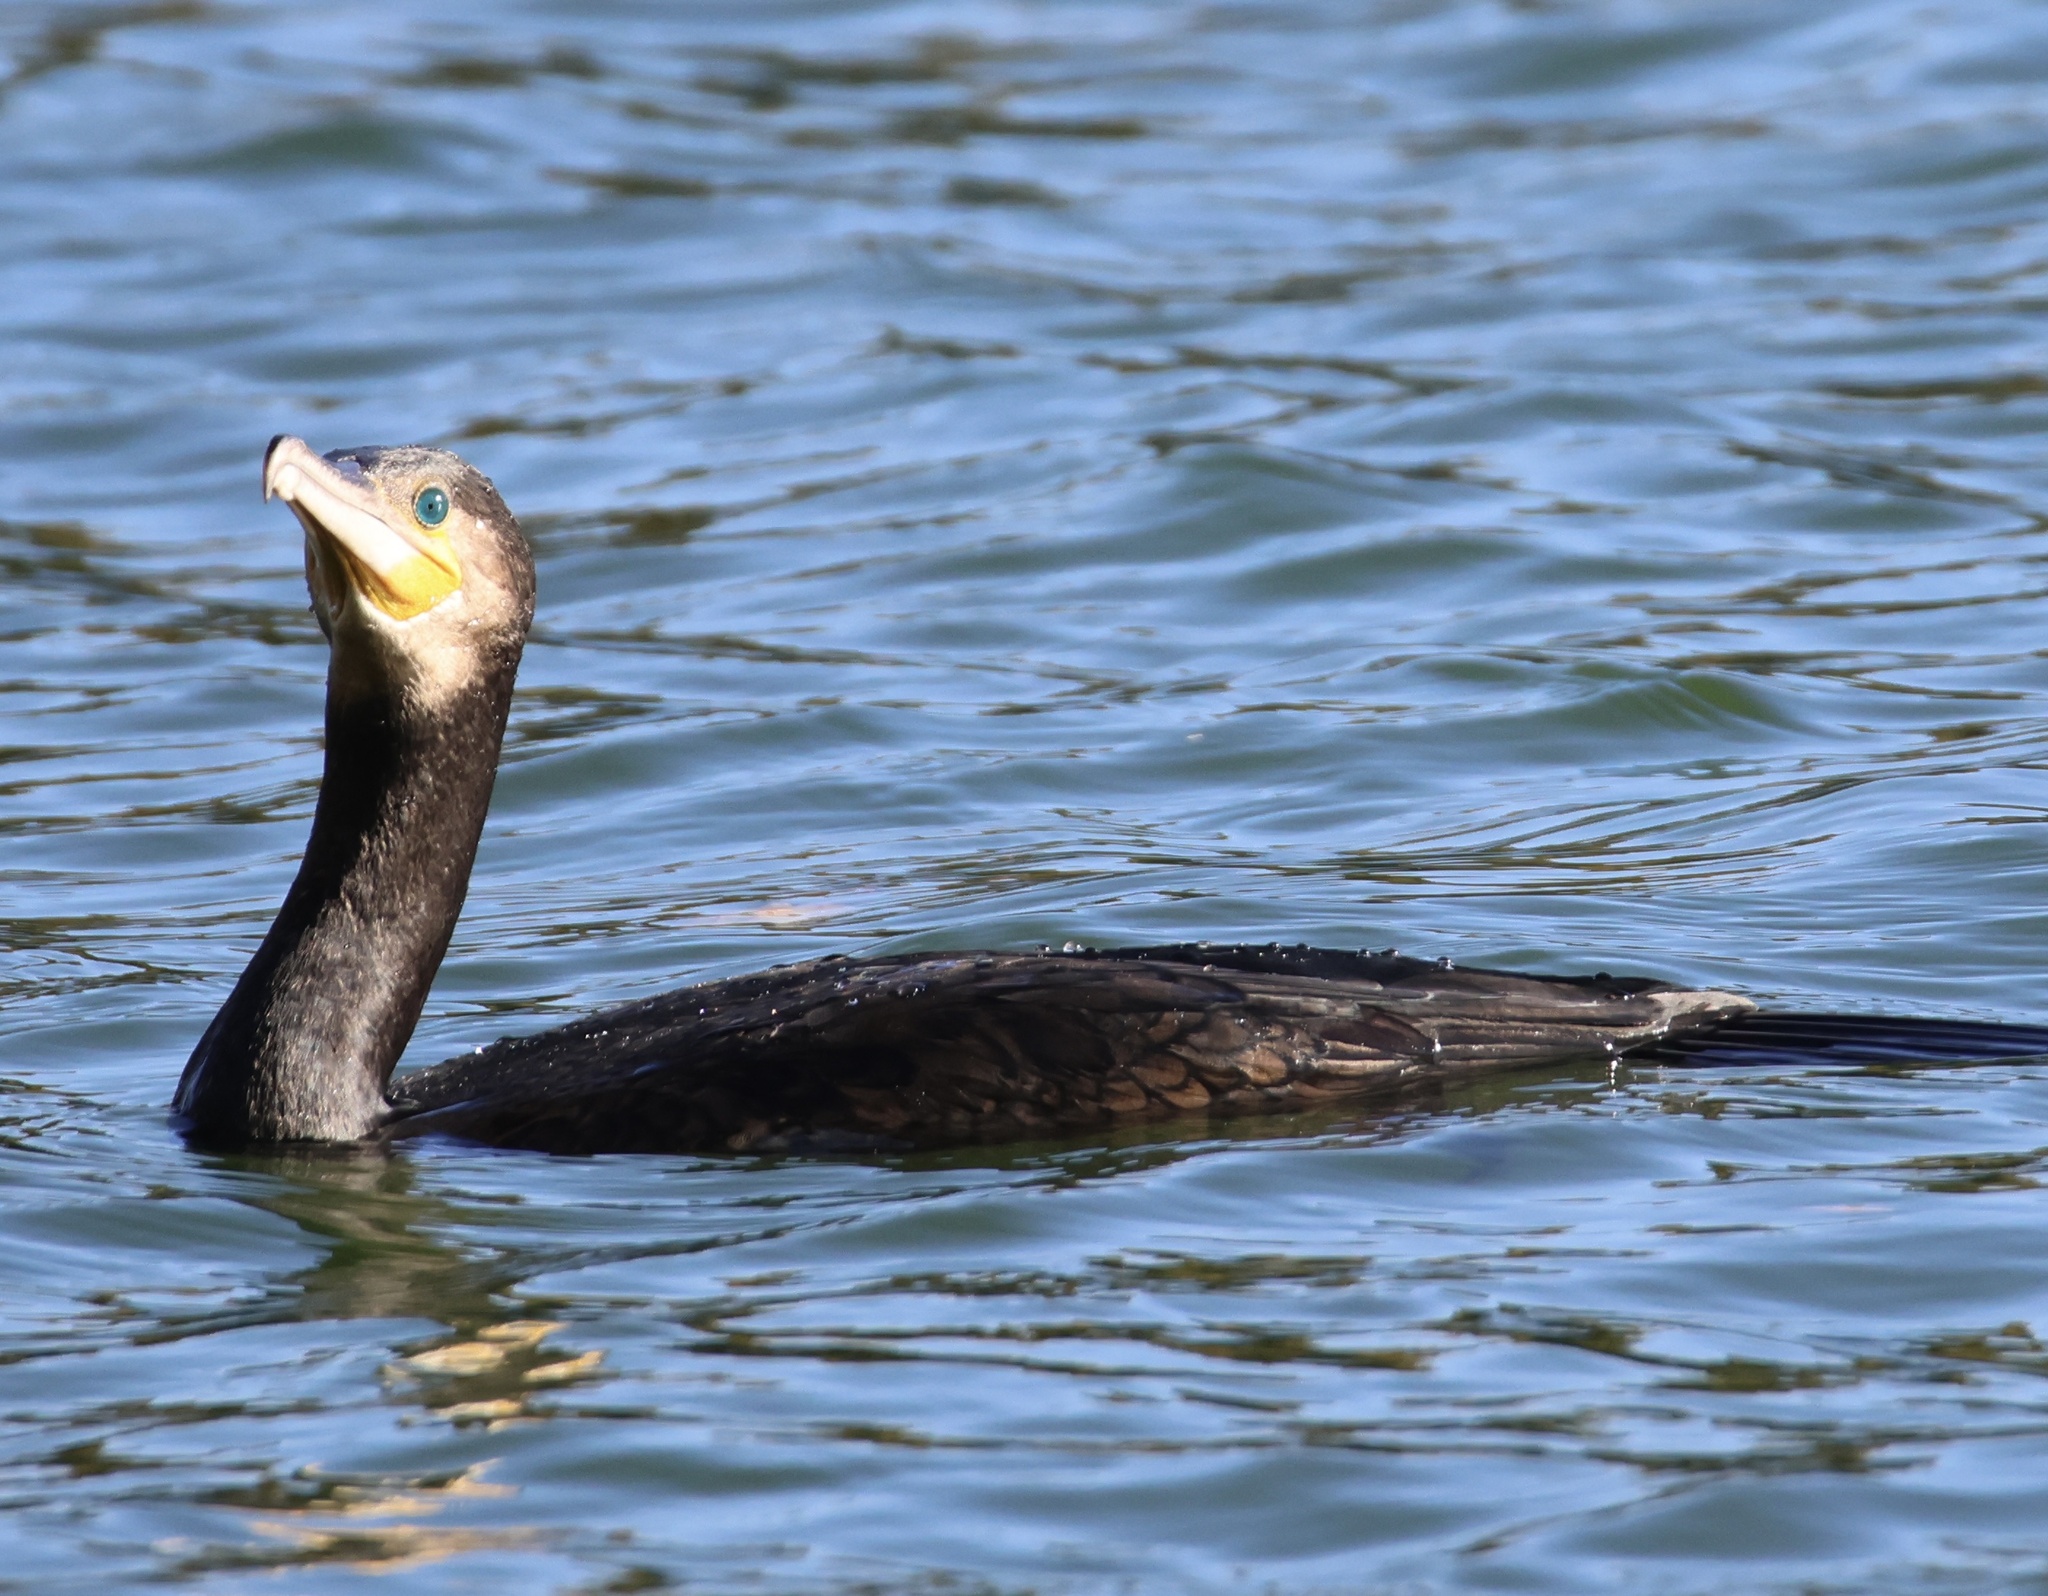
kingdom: Animalia
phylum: Chordata
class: Aves
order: Suliformes
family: Phalacrocoracidae
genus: Phalacrocorax
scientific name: Phalacrocorax carbo
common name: Great cormorant
